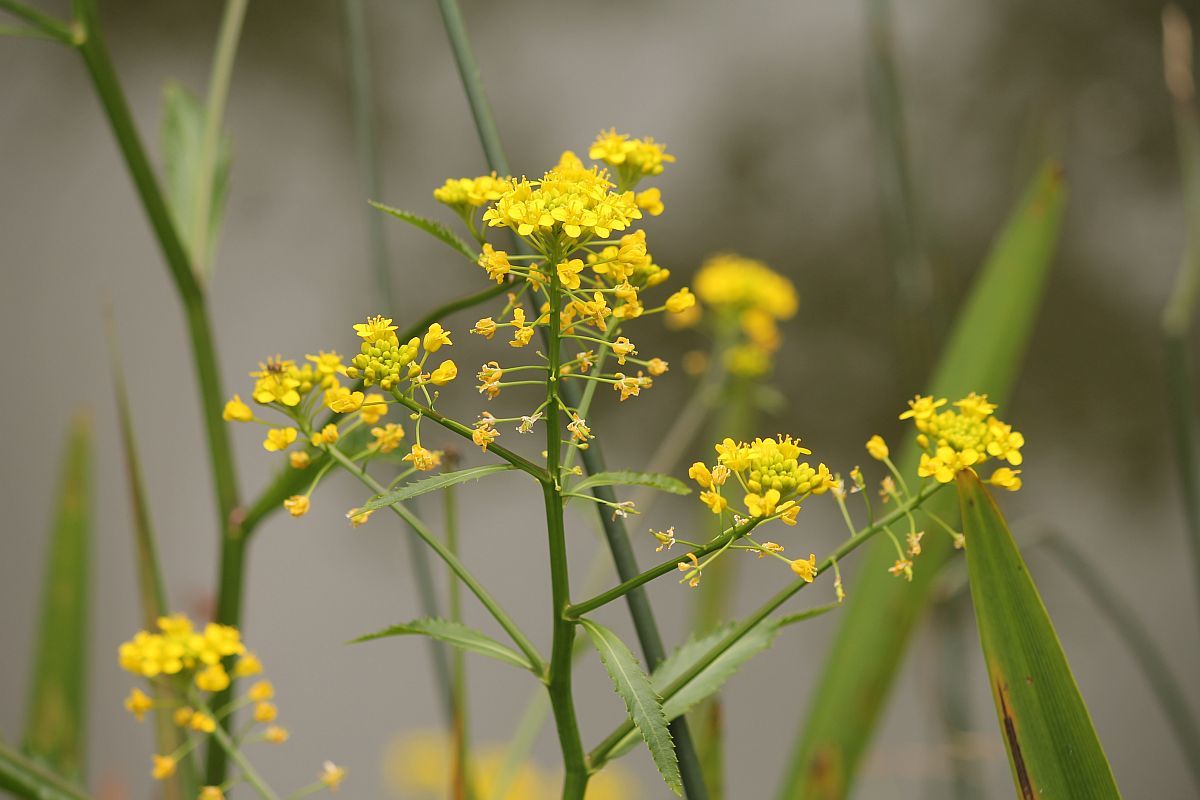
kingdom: Plantae
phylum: Tracheophyta
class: Magnoliopsida
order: Brassicales
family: Brassicaceae
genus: Rorippa
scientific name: Rorippa amphibia
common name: Great yellow-cress
